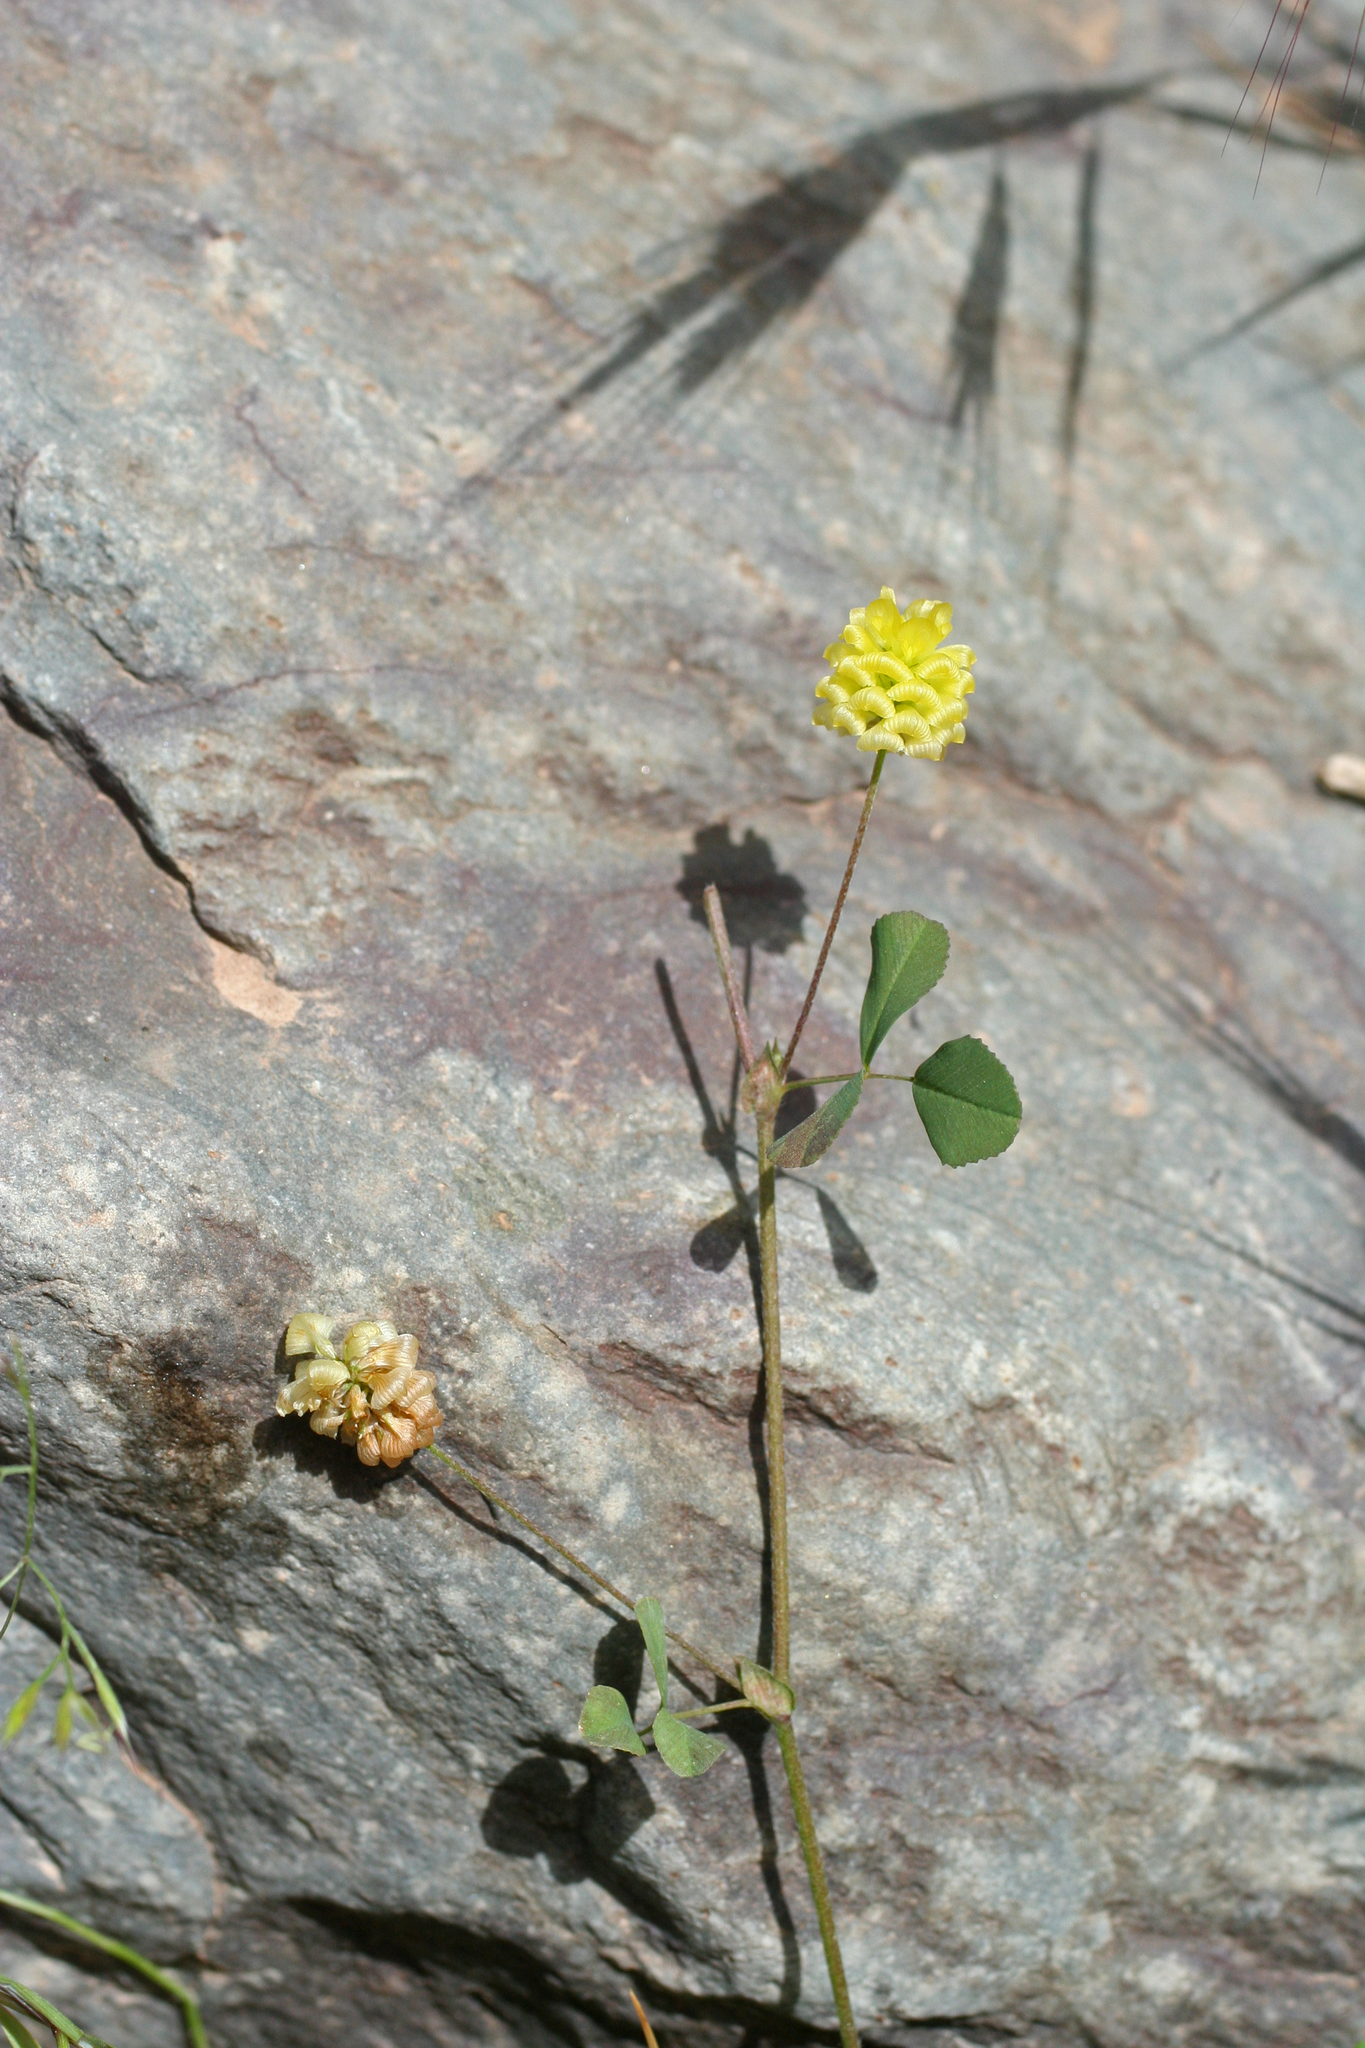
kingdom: Plantae
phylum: Tracheophyta
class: Magnoliopsida
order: Fabales
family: Fabaceae
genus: Trifolium
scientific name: Trifolium campestre
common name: Field clover
